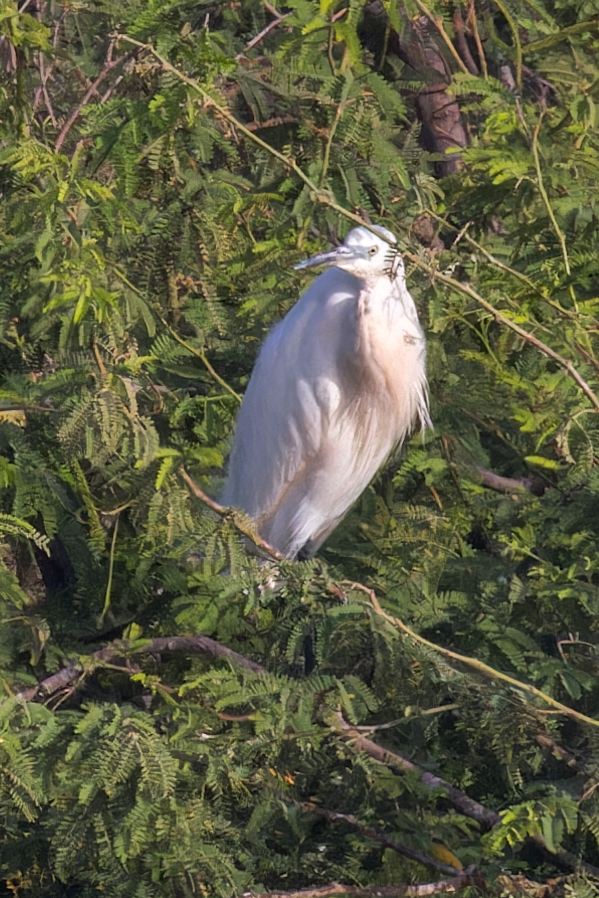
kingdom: Animalia
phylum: Chordata
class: Aves
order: Pelecaniformes
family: Ardeidae
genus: Egretta
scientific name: Egretta garzetta
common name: Little egret
